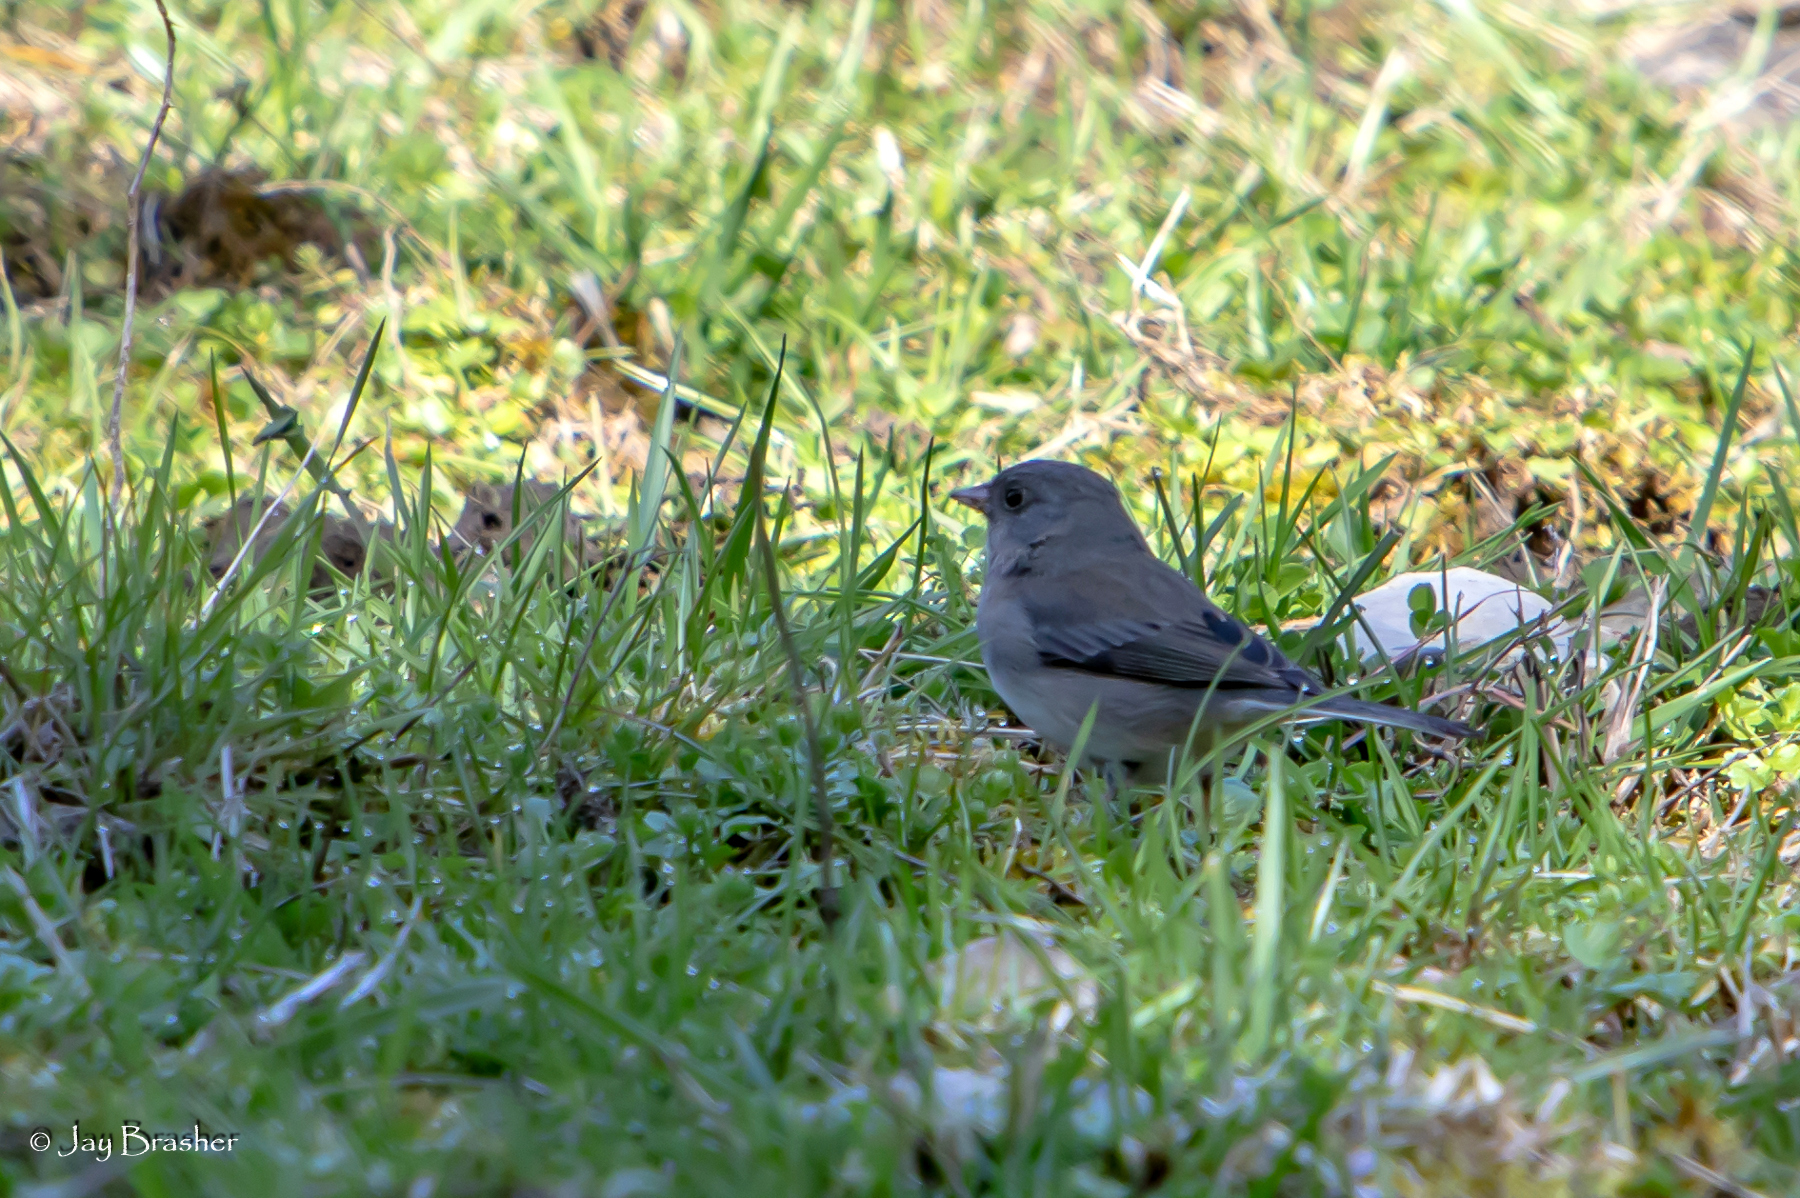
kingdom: Animalia
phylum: Chordata
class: Aves
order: Passeriformes
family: Passerellidae
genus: Junco
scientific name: Junco hyemalis
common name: Dark-eyed junco
